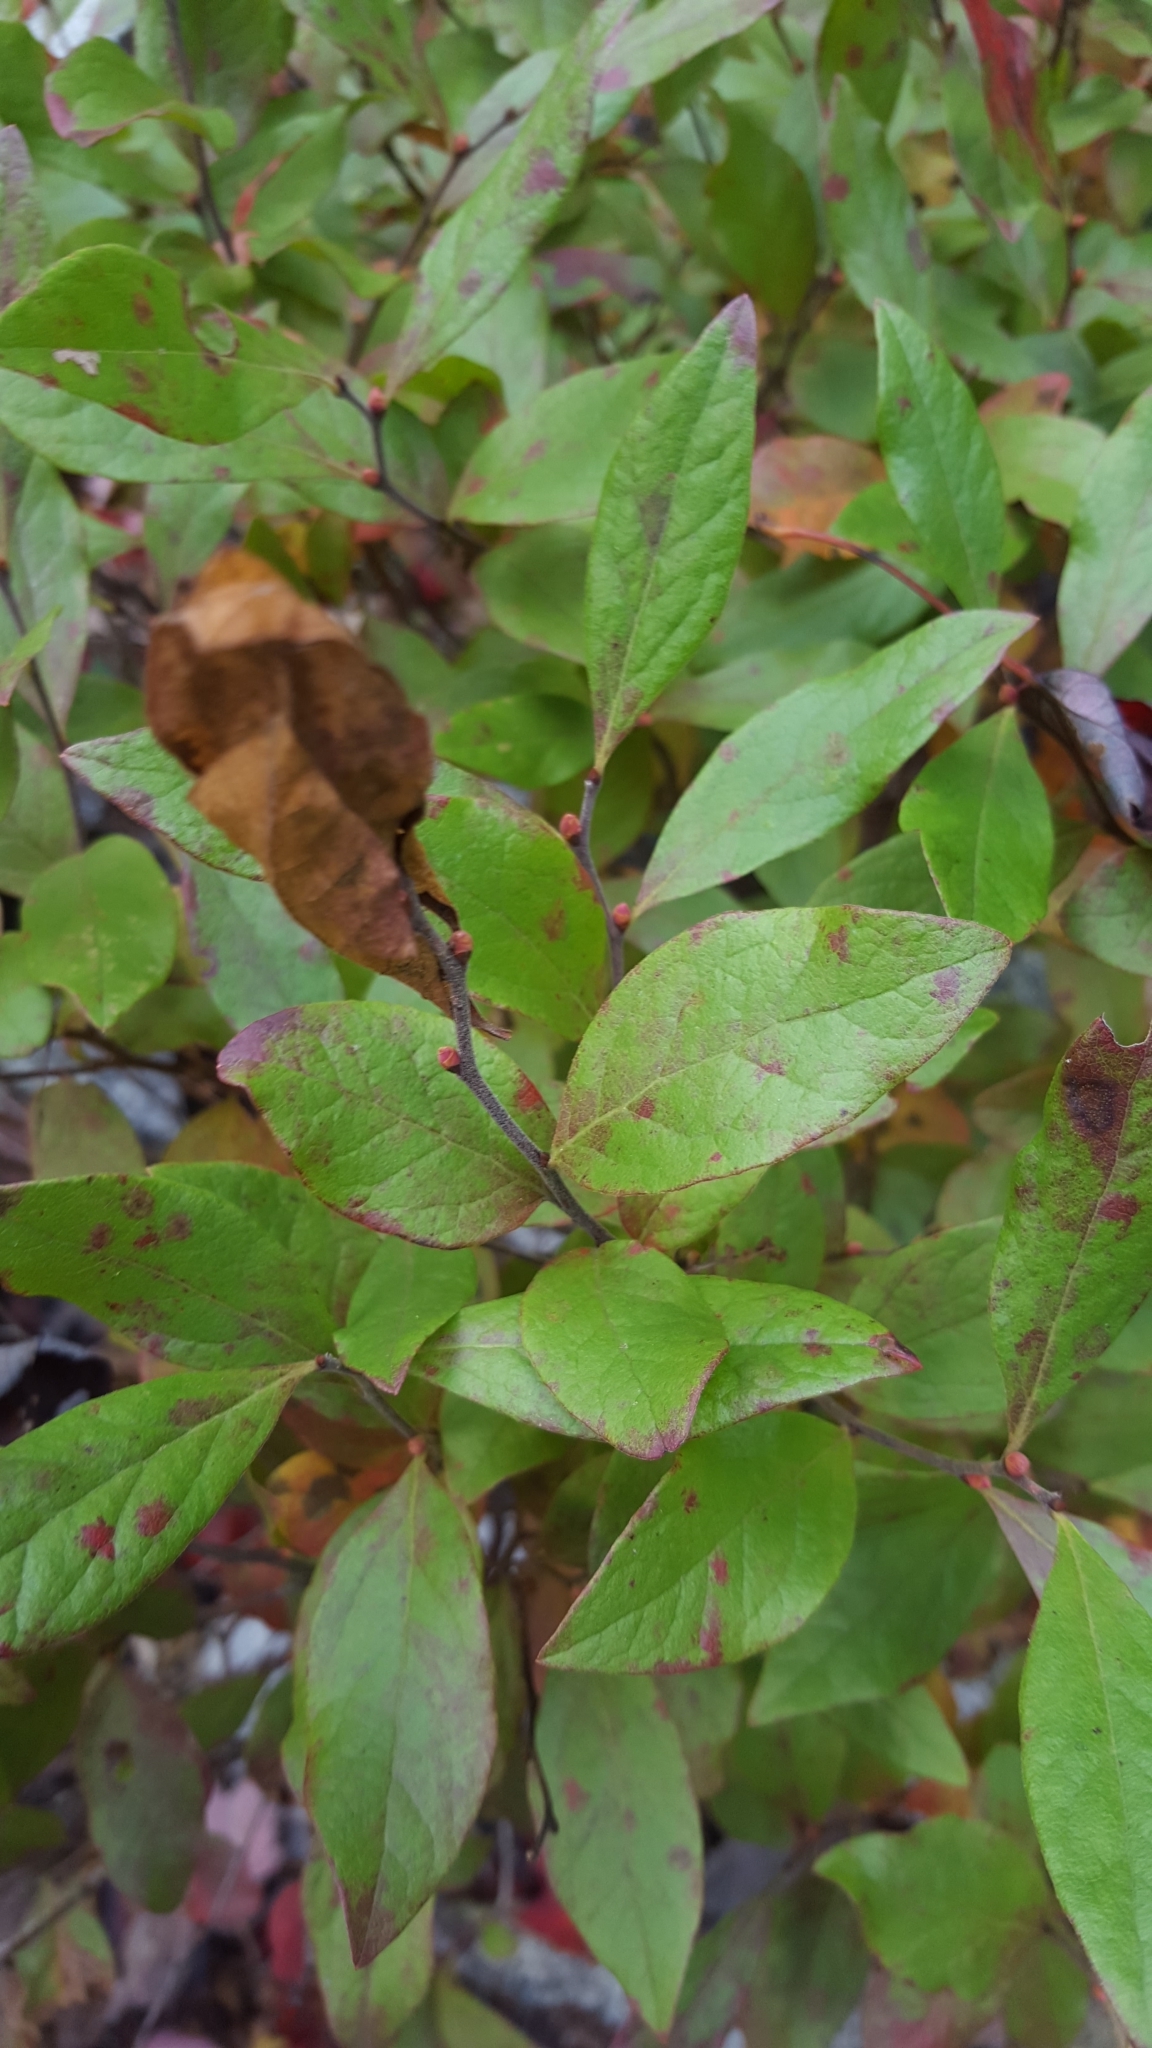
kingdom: Plantae
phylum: Tracheophyta
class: Magnoliopsida
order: Ericales
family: Ericaceae
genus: Gaylussacia
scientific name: Gaylussacia baccata
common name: Black huckleberry
